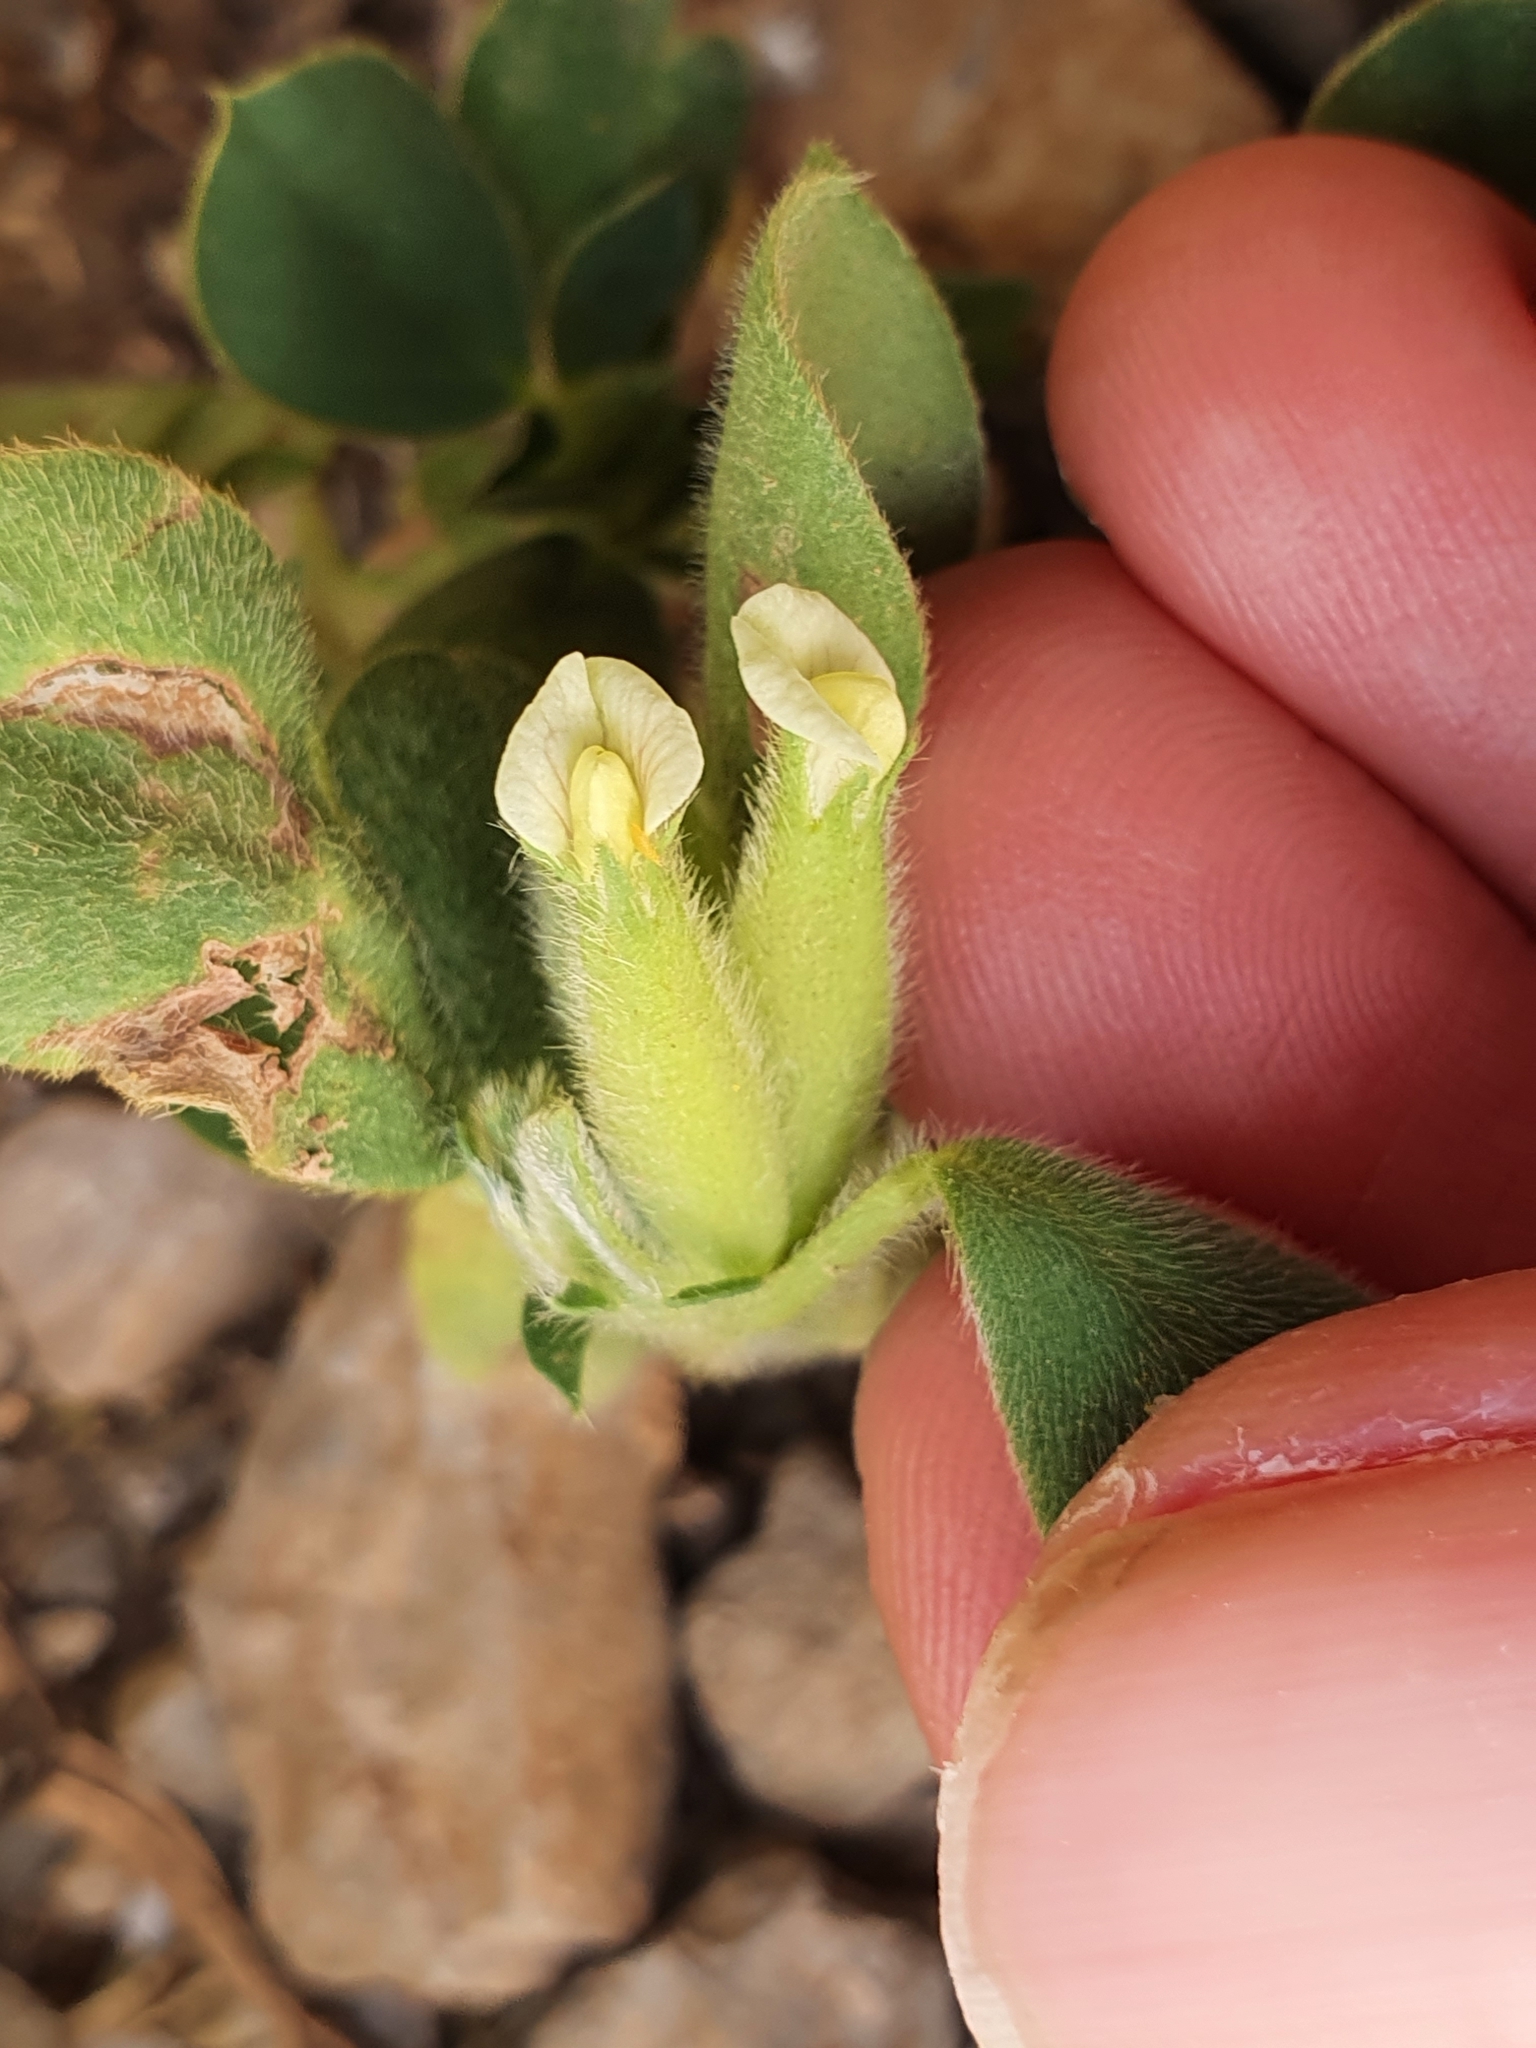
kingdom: Plantae
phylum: Tracheophyta
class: Magnoliopsida
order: Fabales
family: Fabaceae
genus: Tripodion
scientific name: Tripodion tetraphyllum
